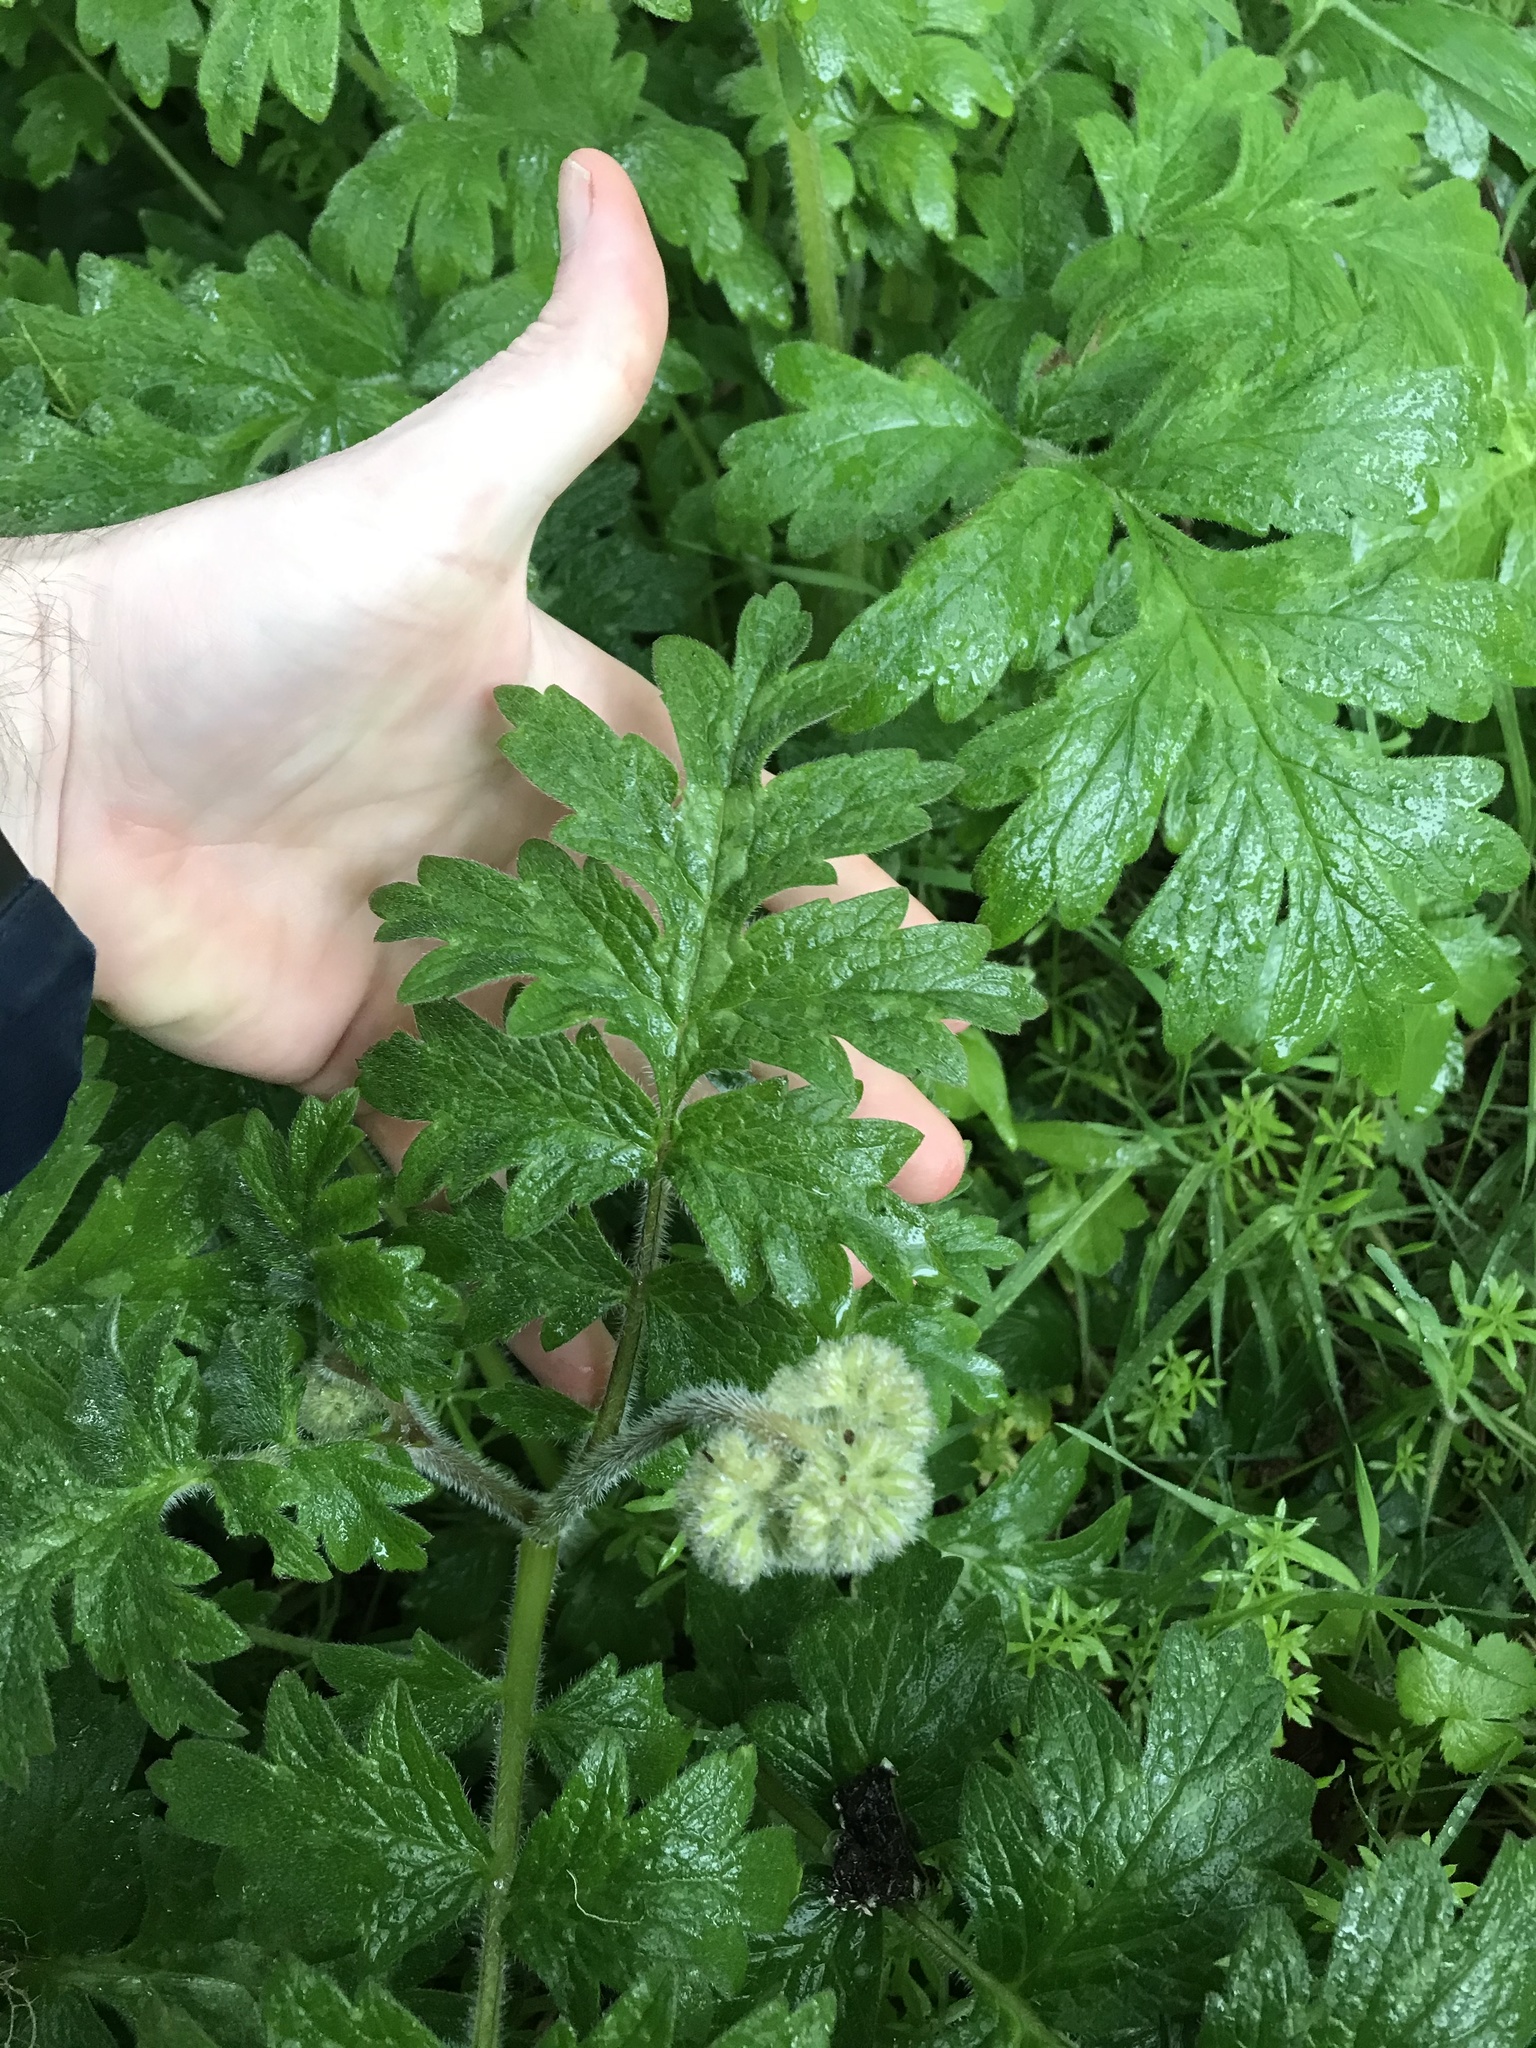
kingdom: Plantae
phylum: Tracheophyta
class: Magnoliopsida
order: Boraginales
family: Hydrophyllaceae
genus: Hydrophyllum
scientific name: Hydrophyllum occidentale
